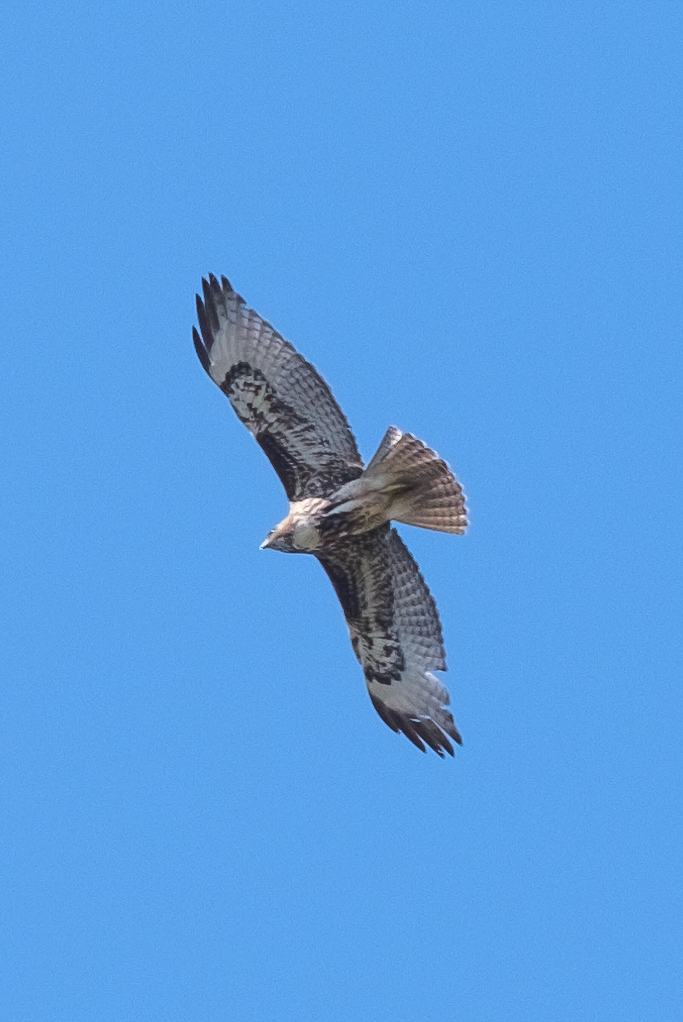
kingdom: Animalia
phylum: Chordata
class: Aves
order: Accipitriformes
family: Accipitridae
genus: Buteo
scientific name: Buteo jamaicensis
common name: Red-tailed hawk
